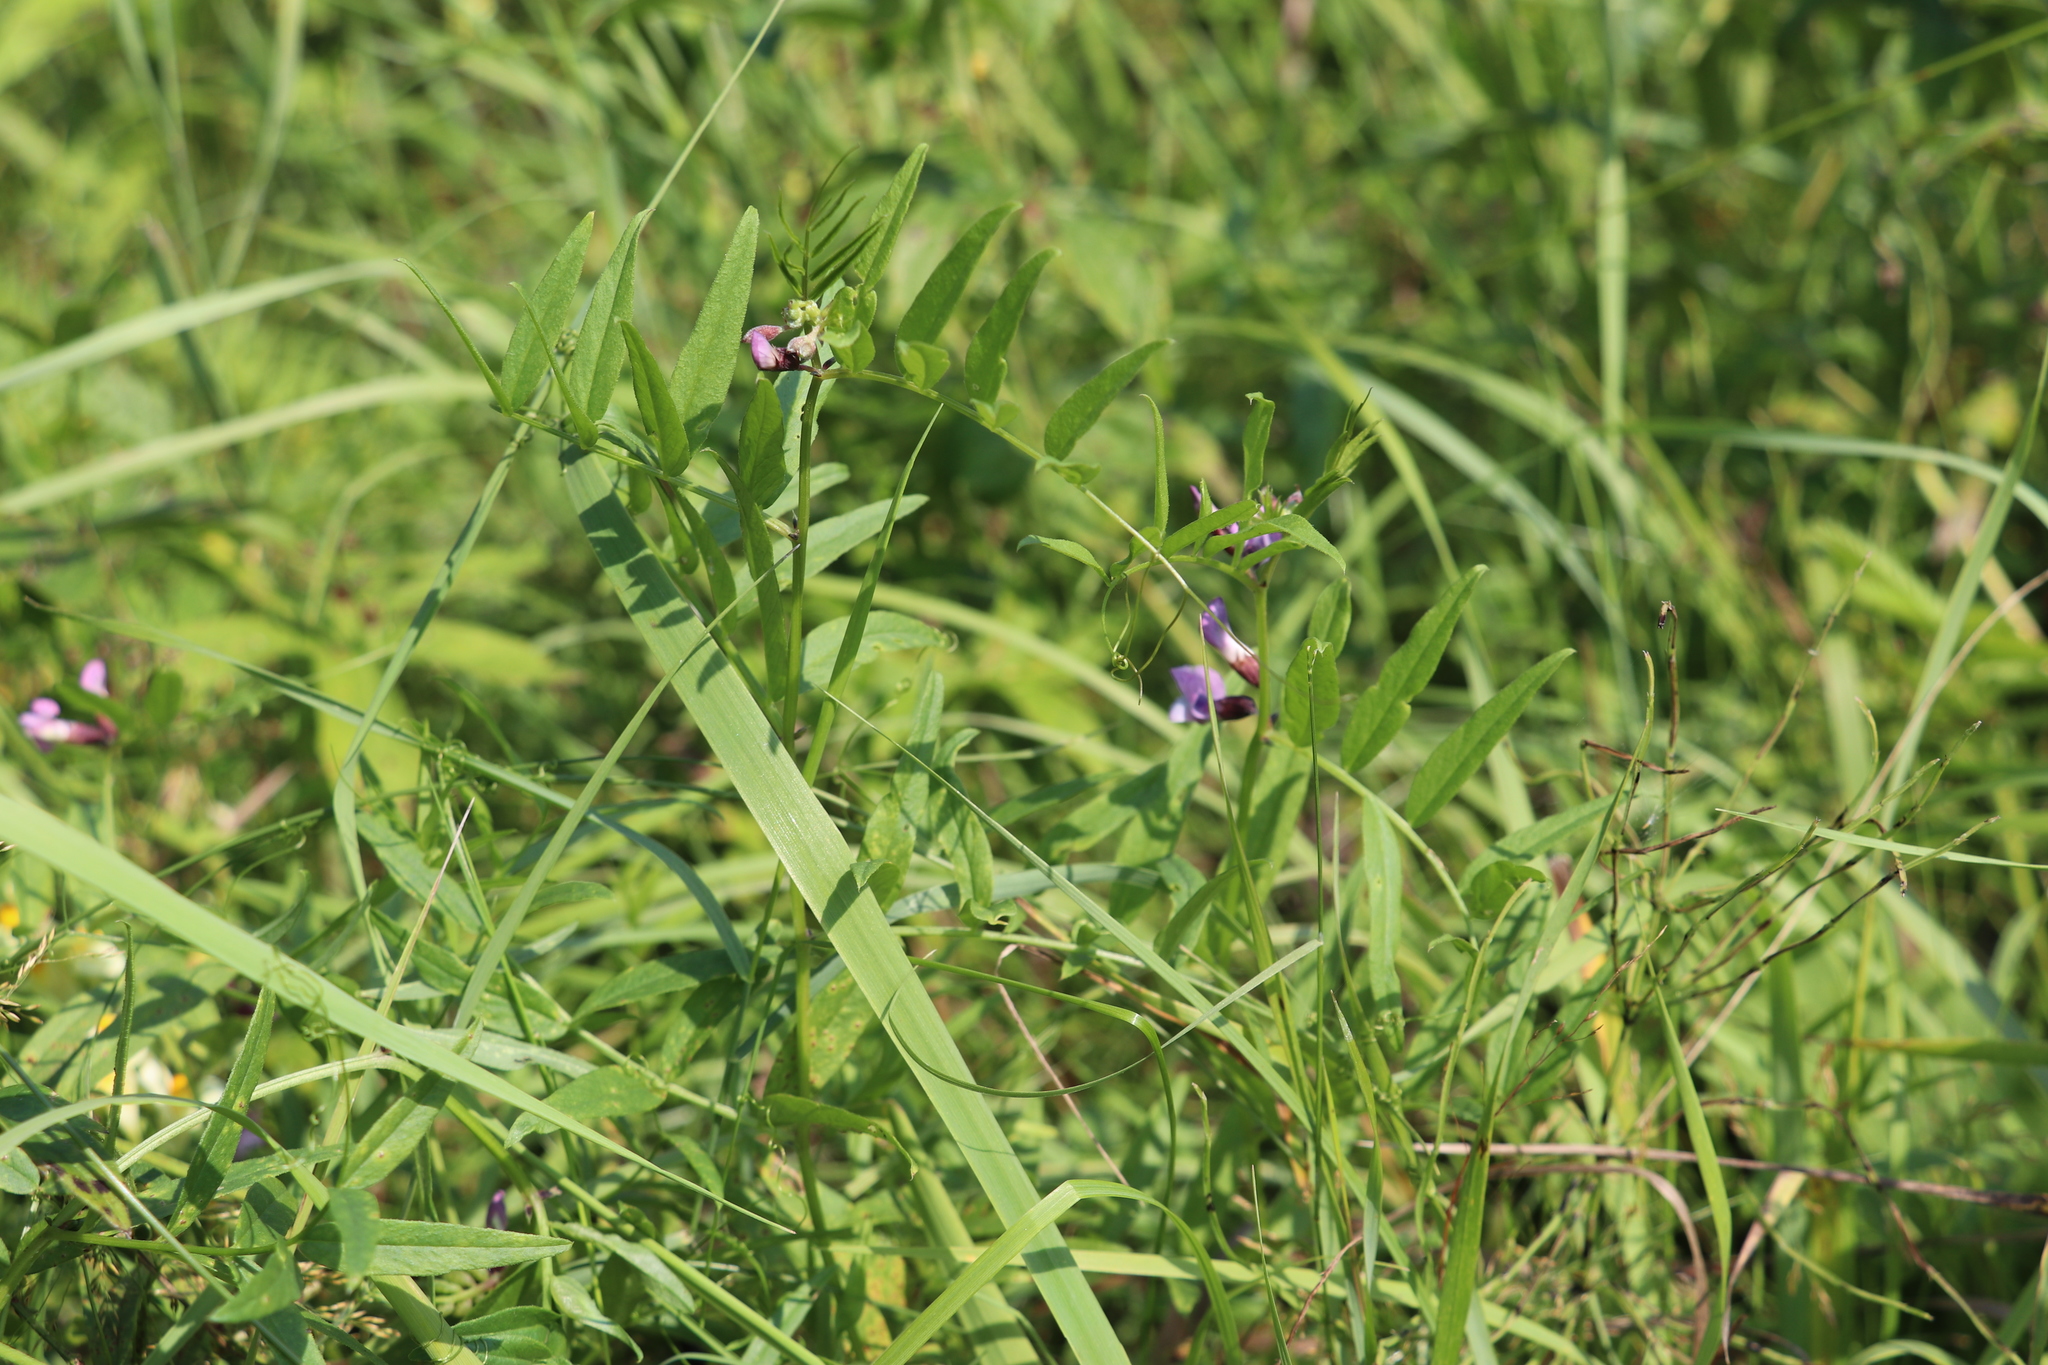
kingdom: Plantae
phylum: Tracheophyta
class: Magnoliopsida
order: Fabales
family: Fabaceae
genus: Vicia
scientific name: Vicia sepium
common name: Bush vetch
